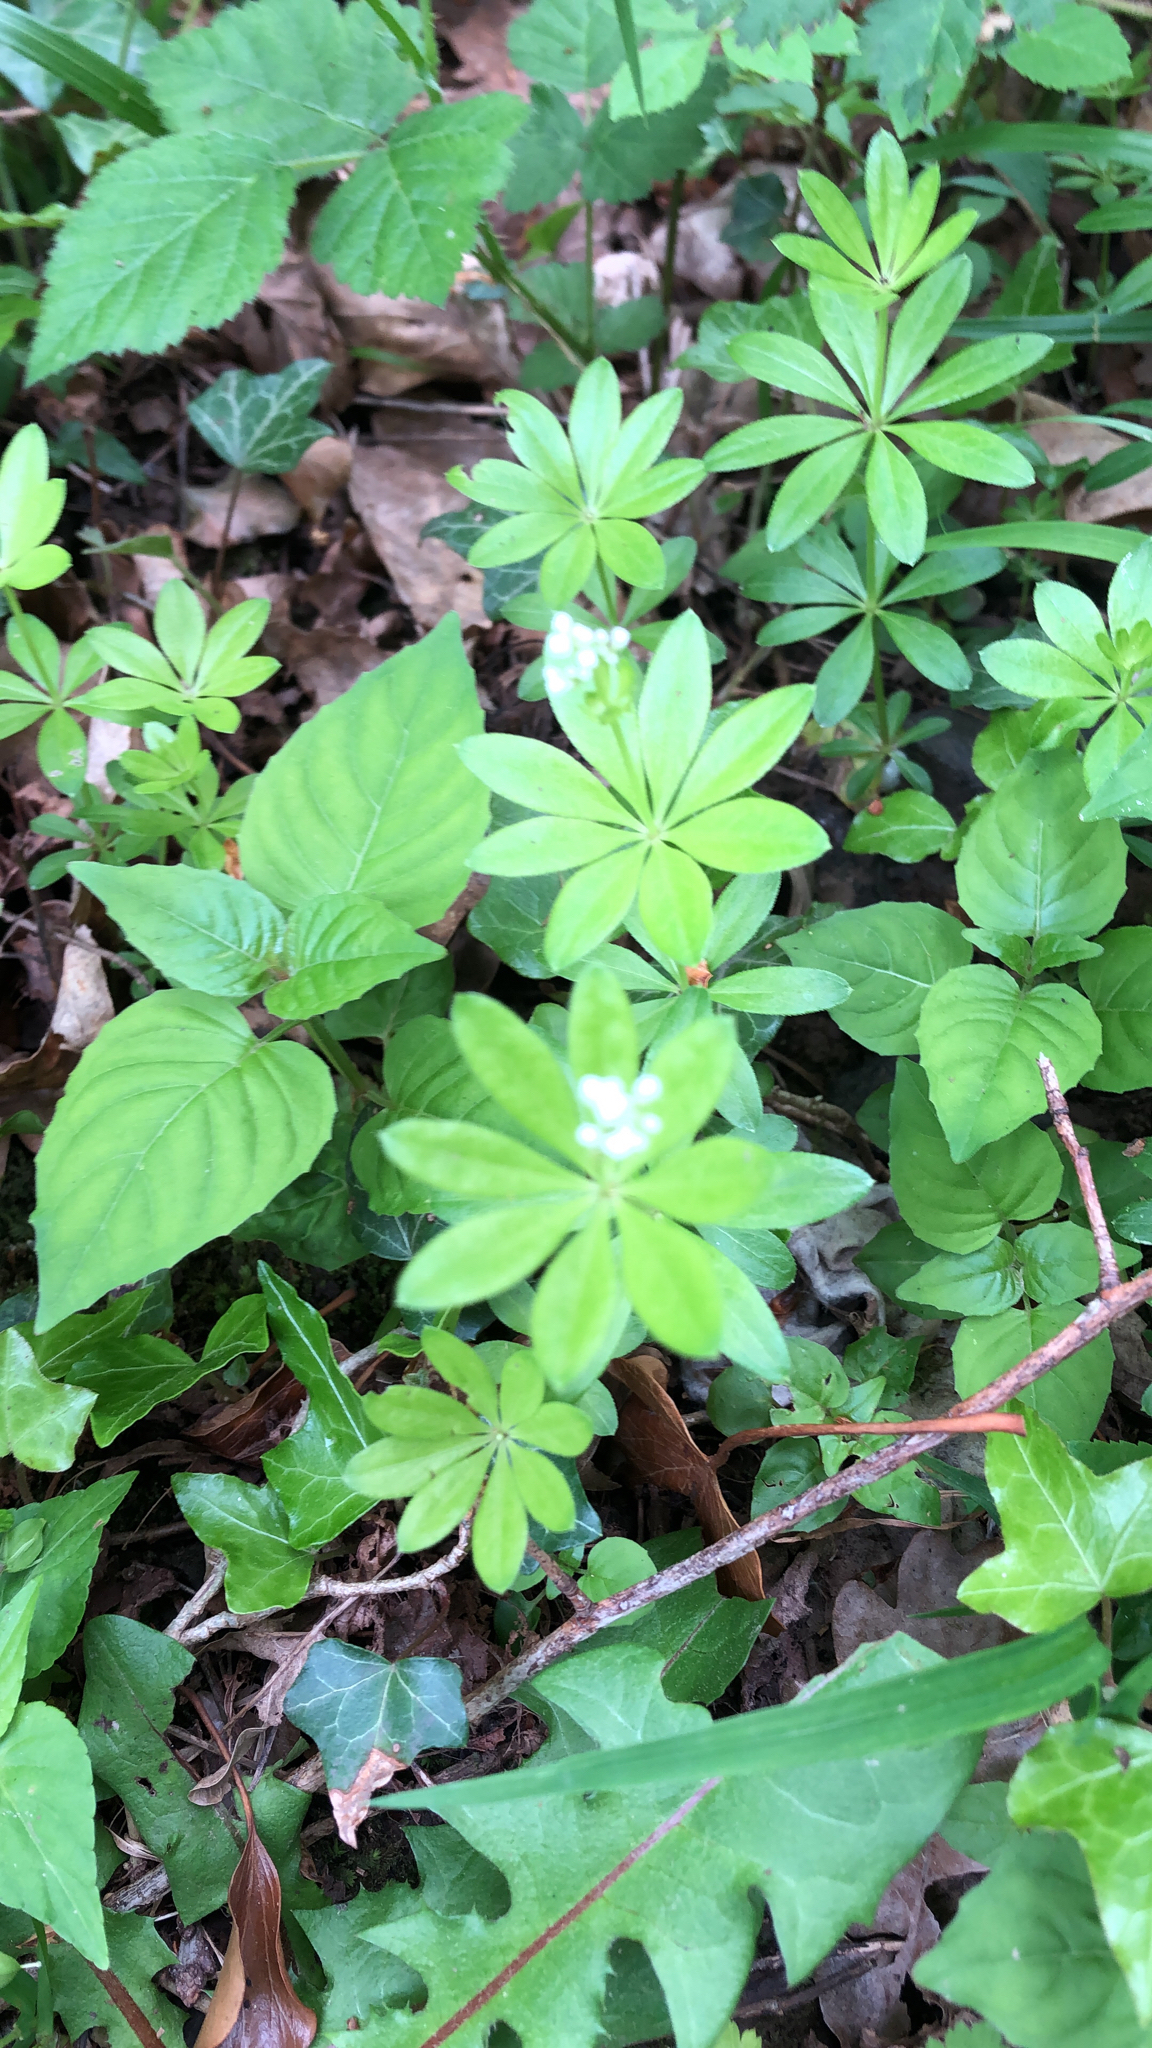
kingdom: Plantae
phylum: Tracheophyta
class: Magnoliopsida
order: Gentianales
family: Rubiaceae
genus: Galium
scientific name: Galium odoratum
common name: Sweet woodruff
